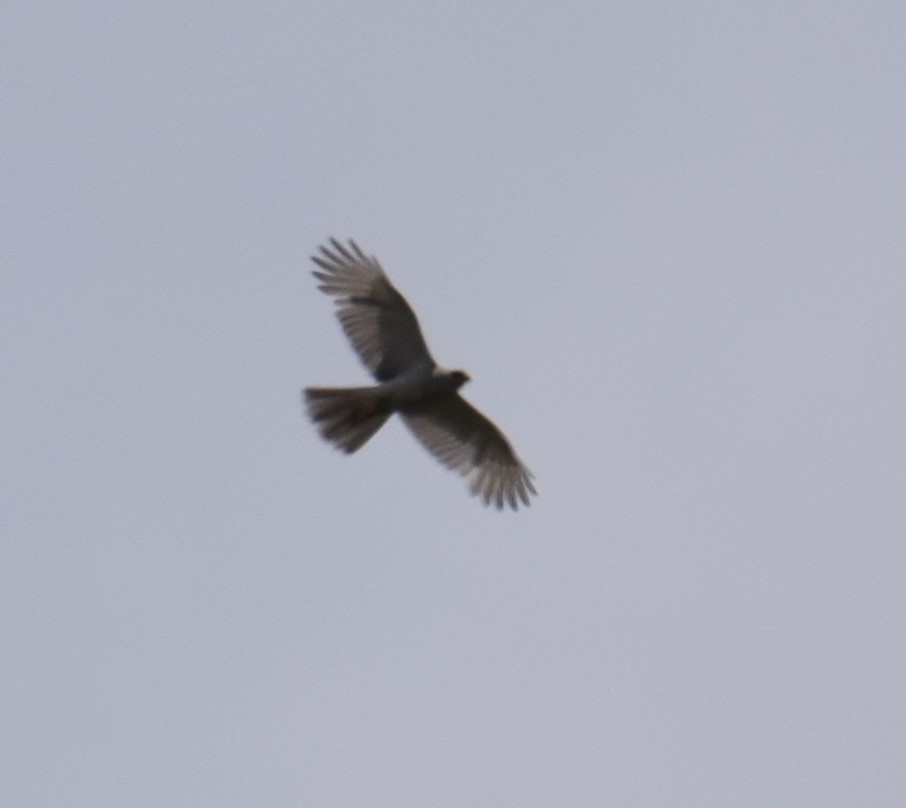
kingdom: Animalia
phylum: Chordata
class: Aves
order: Accipitriformes
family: Accipitridae
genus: Accipiter
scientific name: Accipiter novaehollandiae
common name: Grey goshawk
